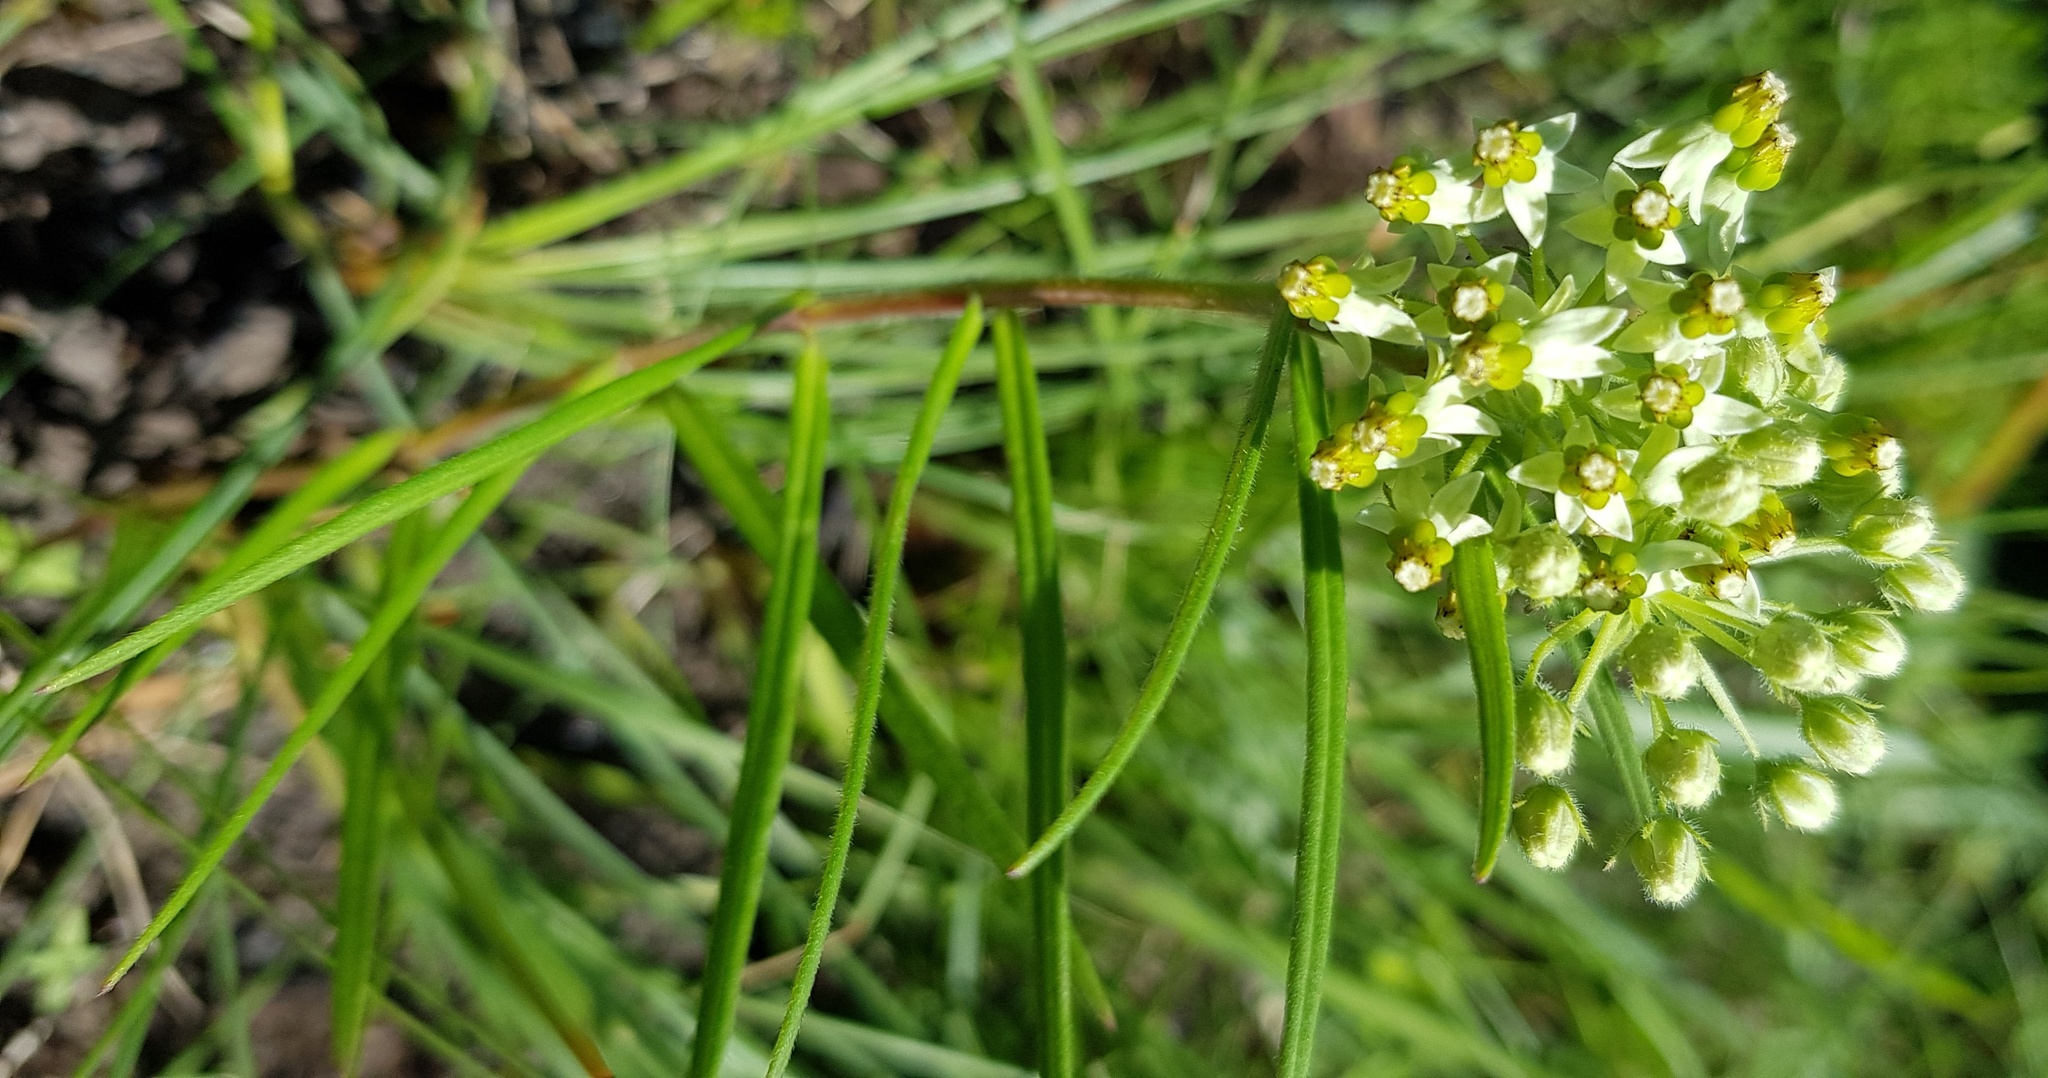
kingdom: Plantae
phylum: Tracheophyta
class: Magnoliopsida
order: Gentianales
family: Apocynaceae
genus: Xysmalobium
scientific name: Xysmalobium involucratum
